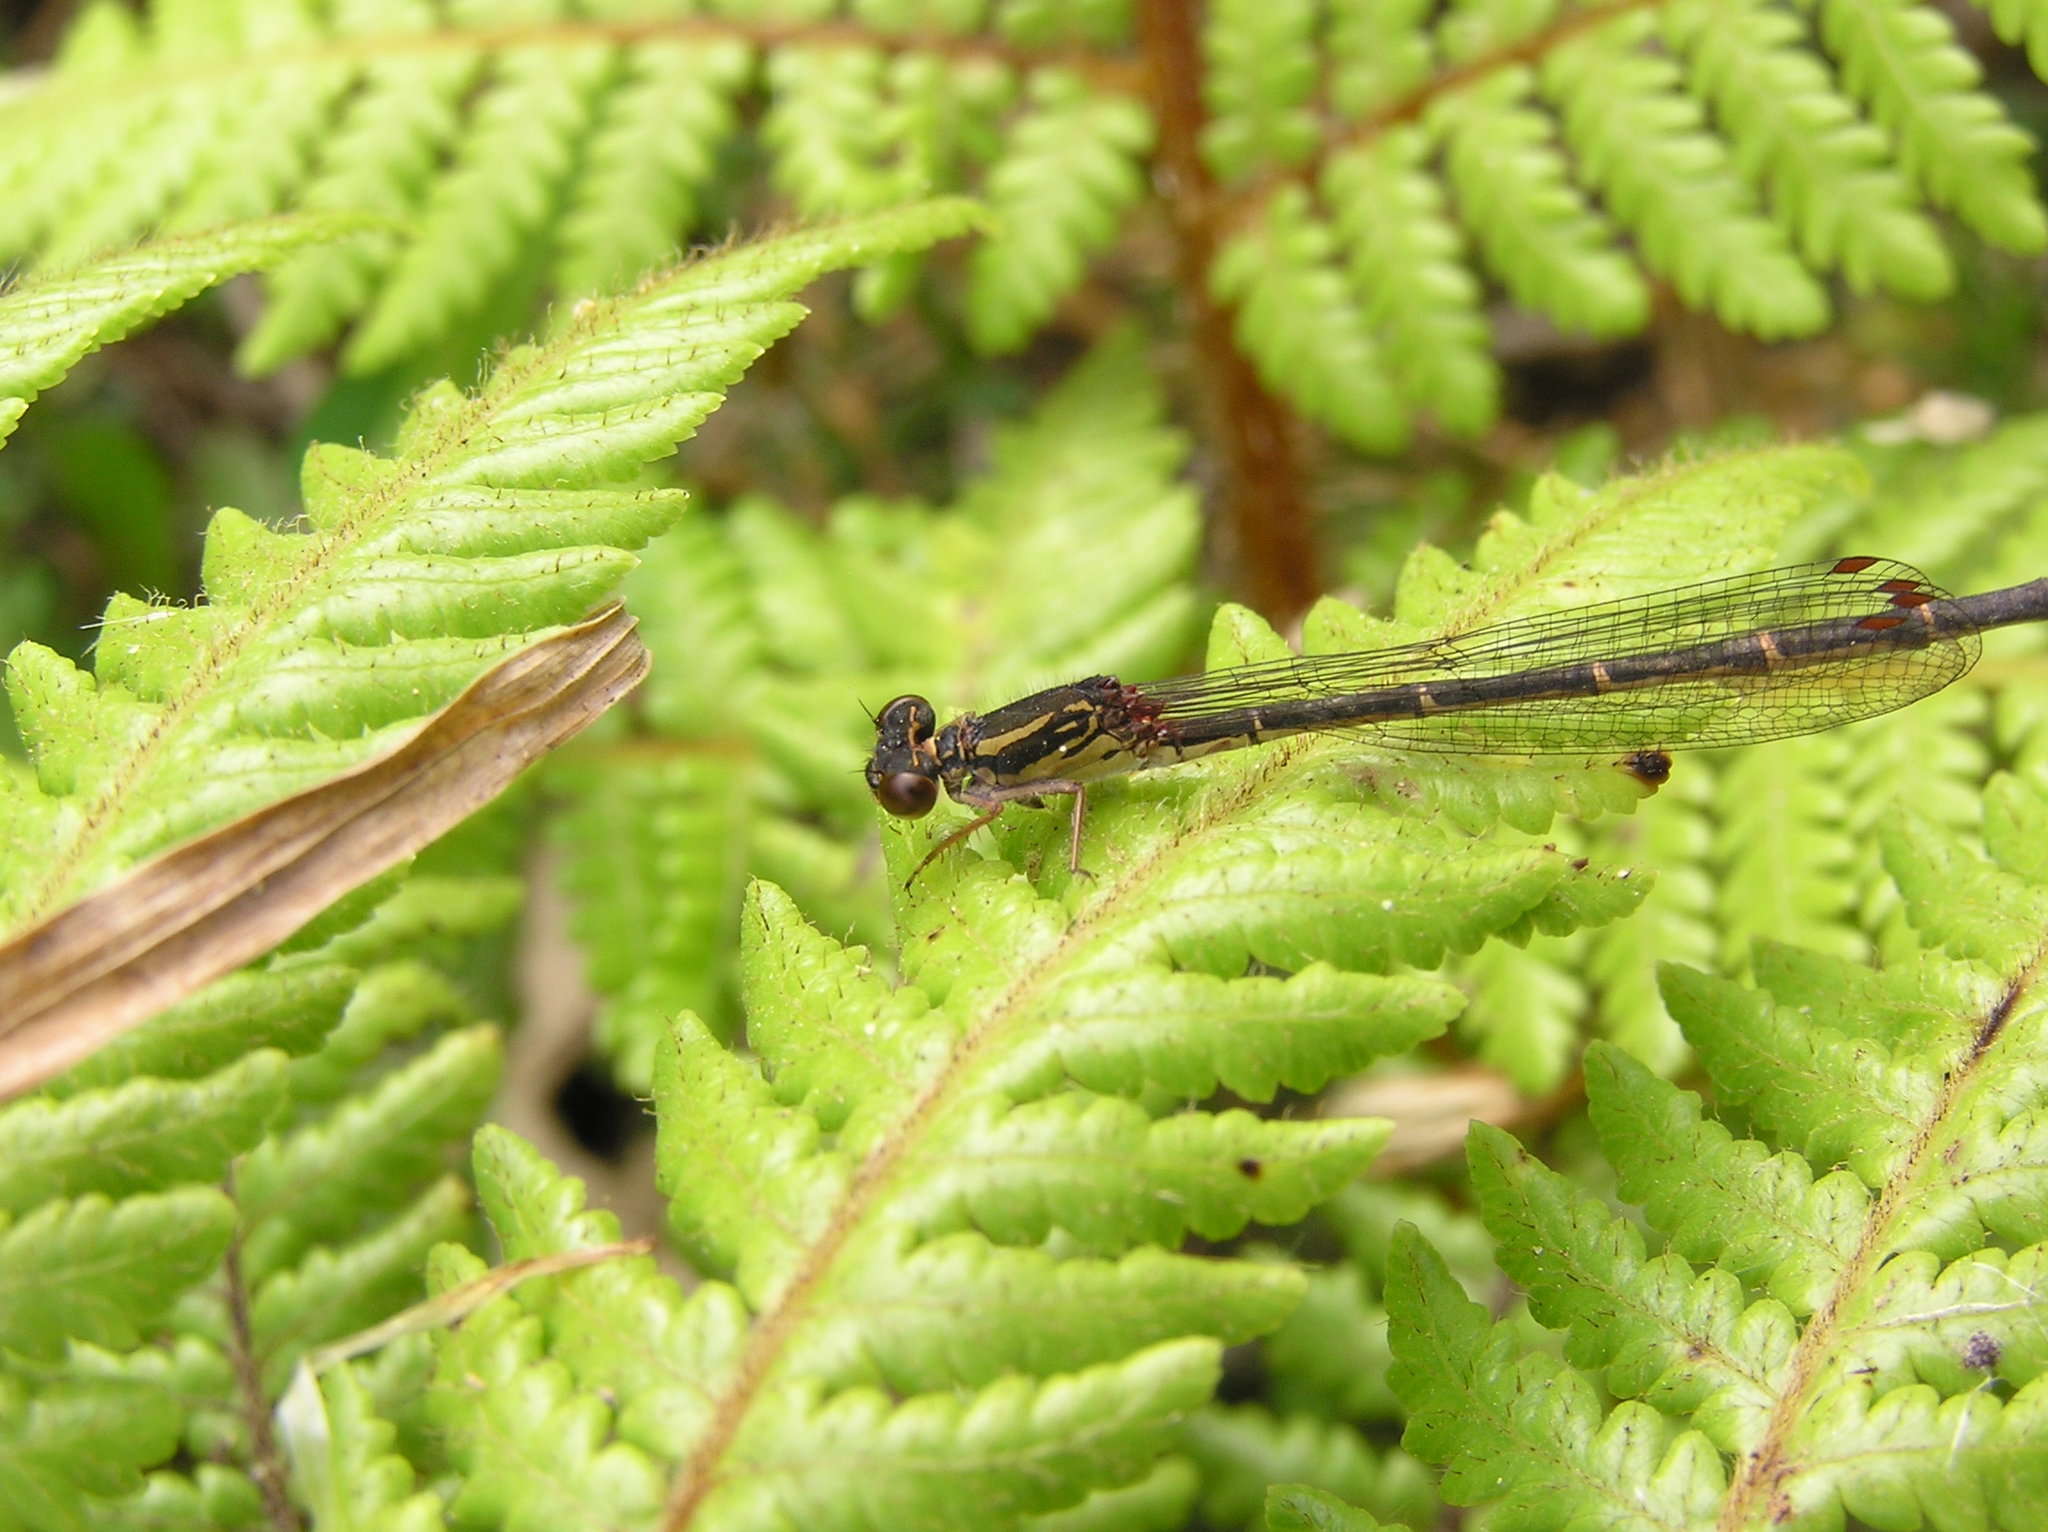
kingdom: Animalia
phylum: Arthropoda
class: Insecta
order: Odonata
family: Coenagrionidae
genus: Xanthocnemis
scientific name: Xanthocnemis zealandica
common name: Common redcoat damselfly
